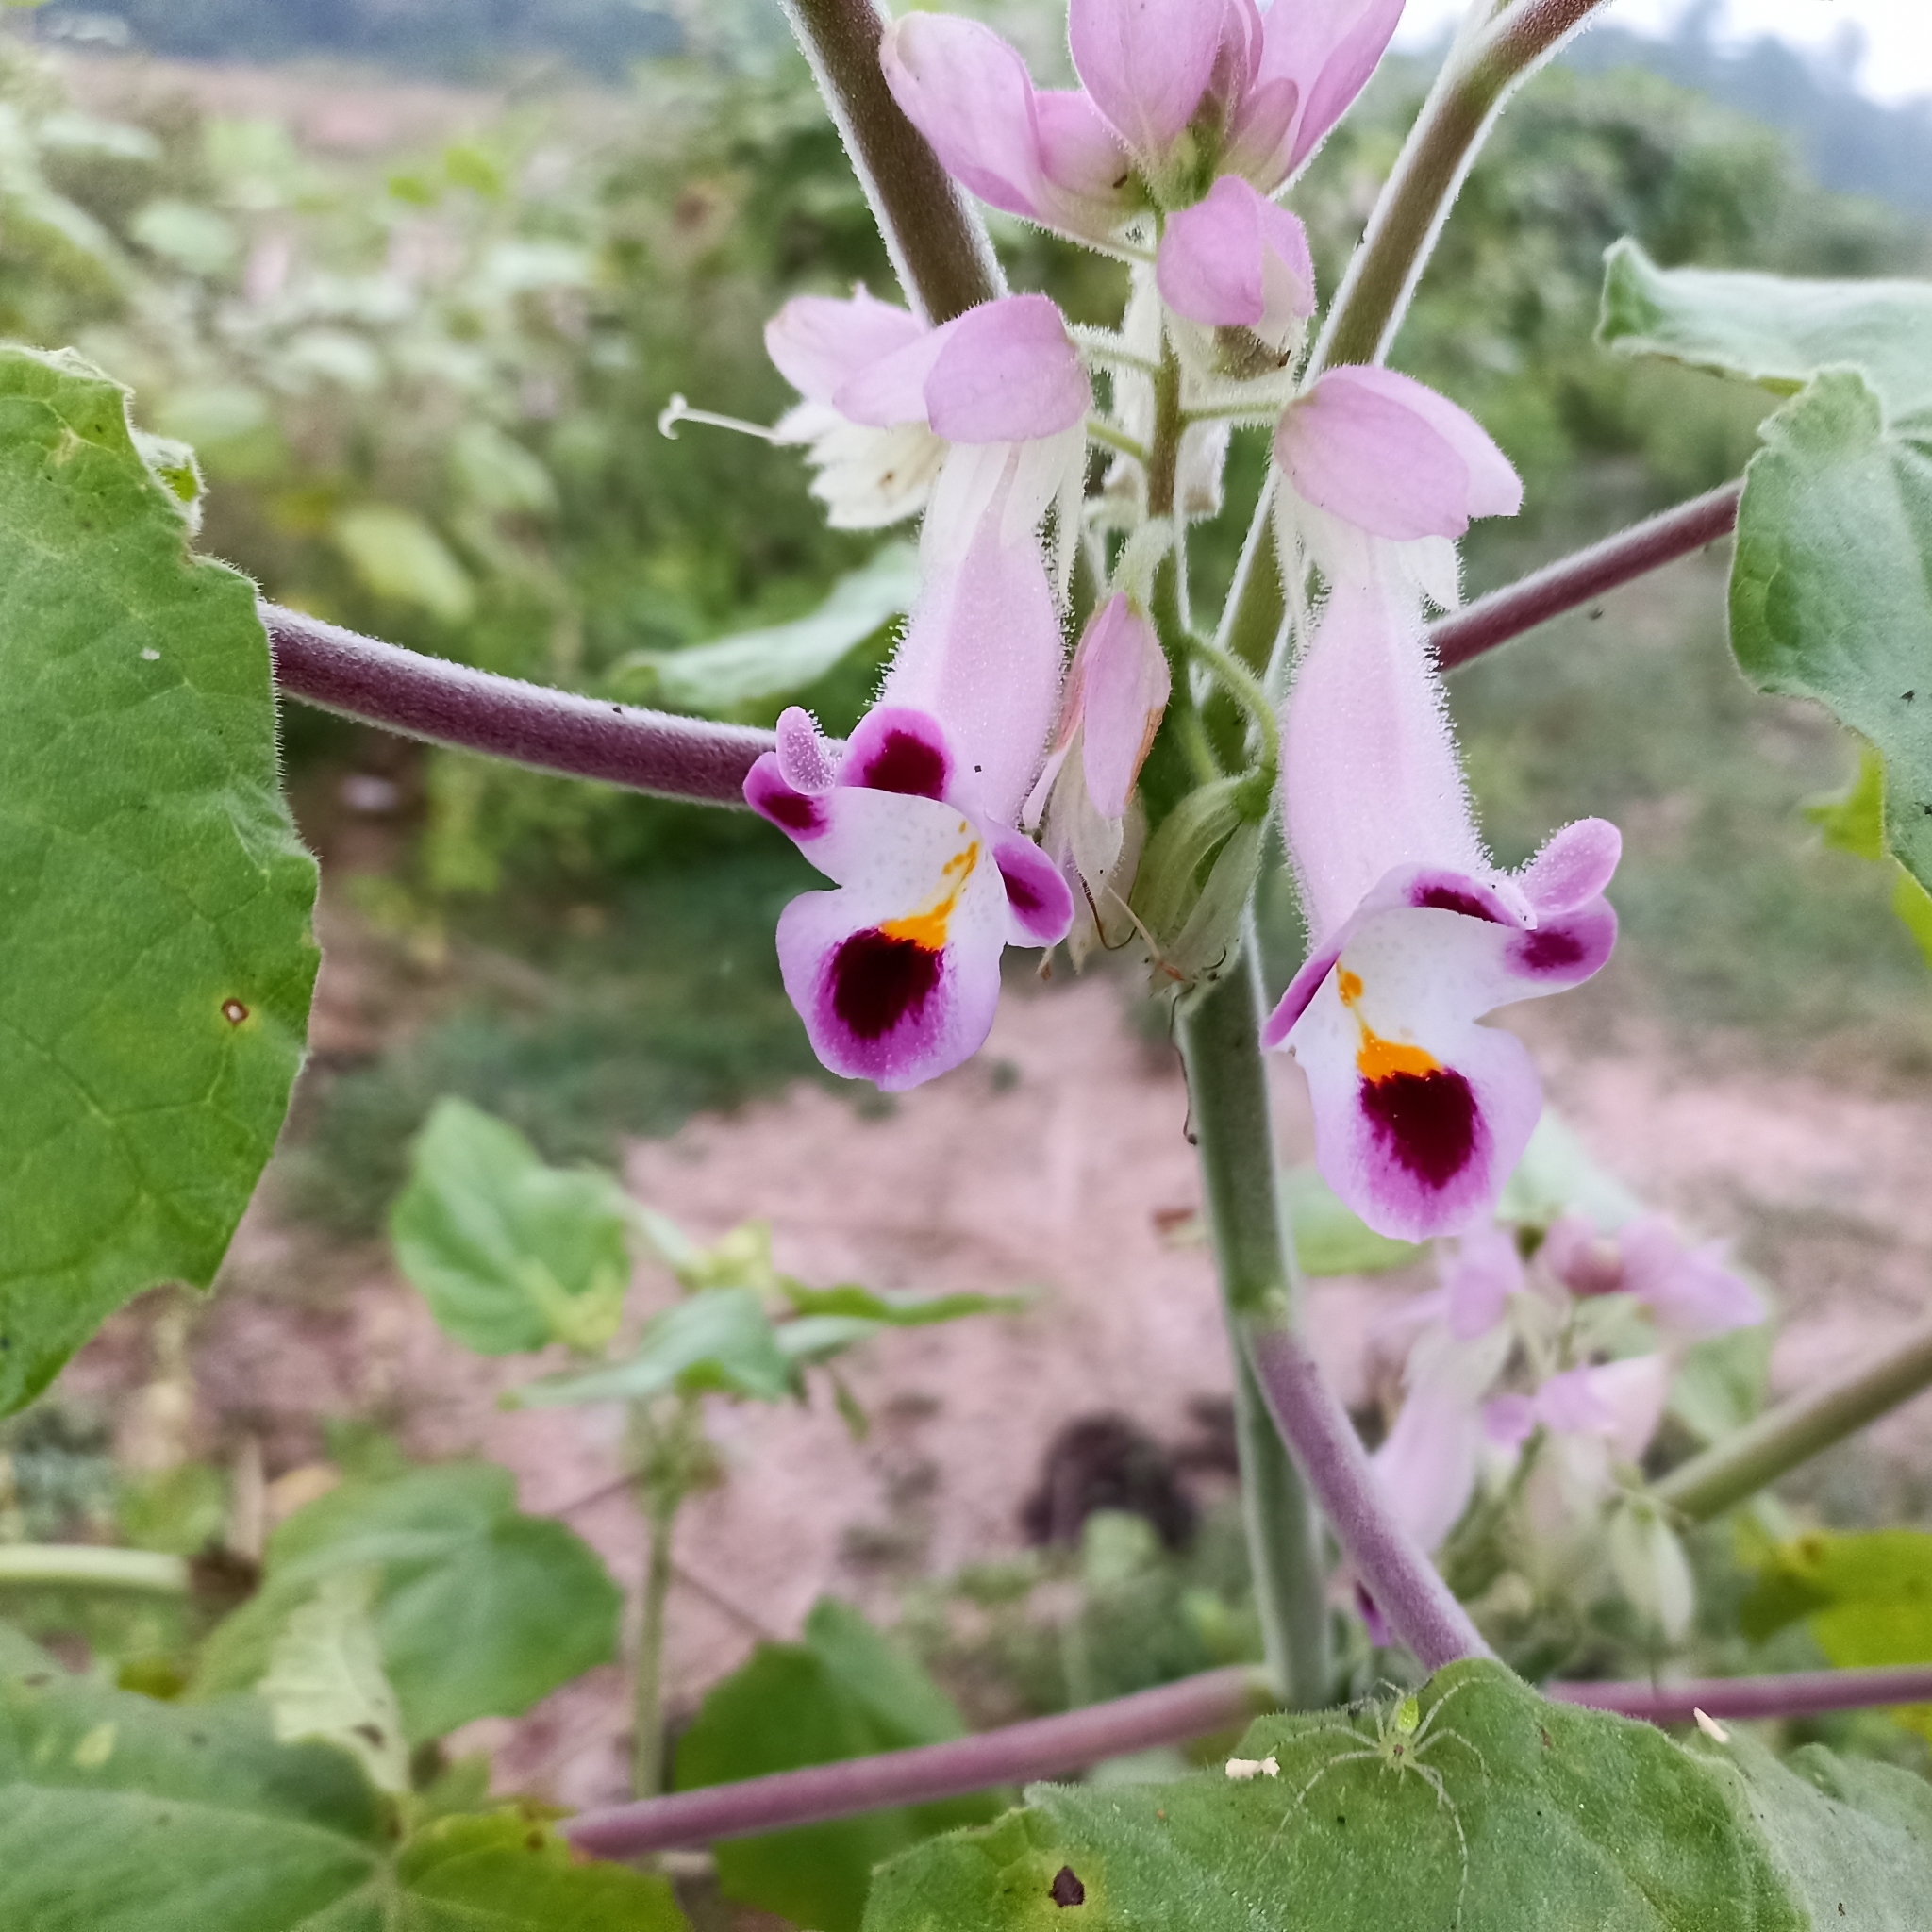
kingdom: Plantae
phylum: Tracheophyta
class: Magnoliopsida
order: Lamiales
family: Martyniaceae
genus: Martynia
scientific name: Martynia annua
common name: Tiger's-claw
